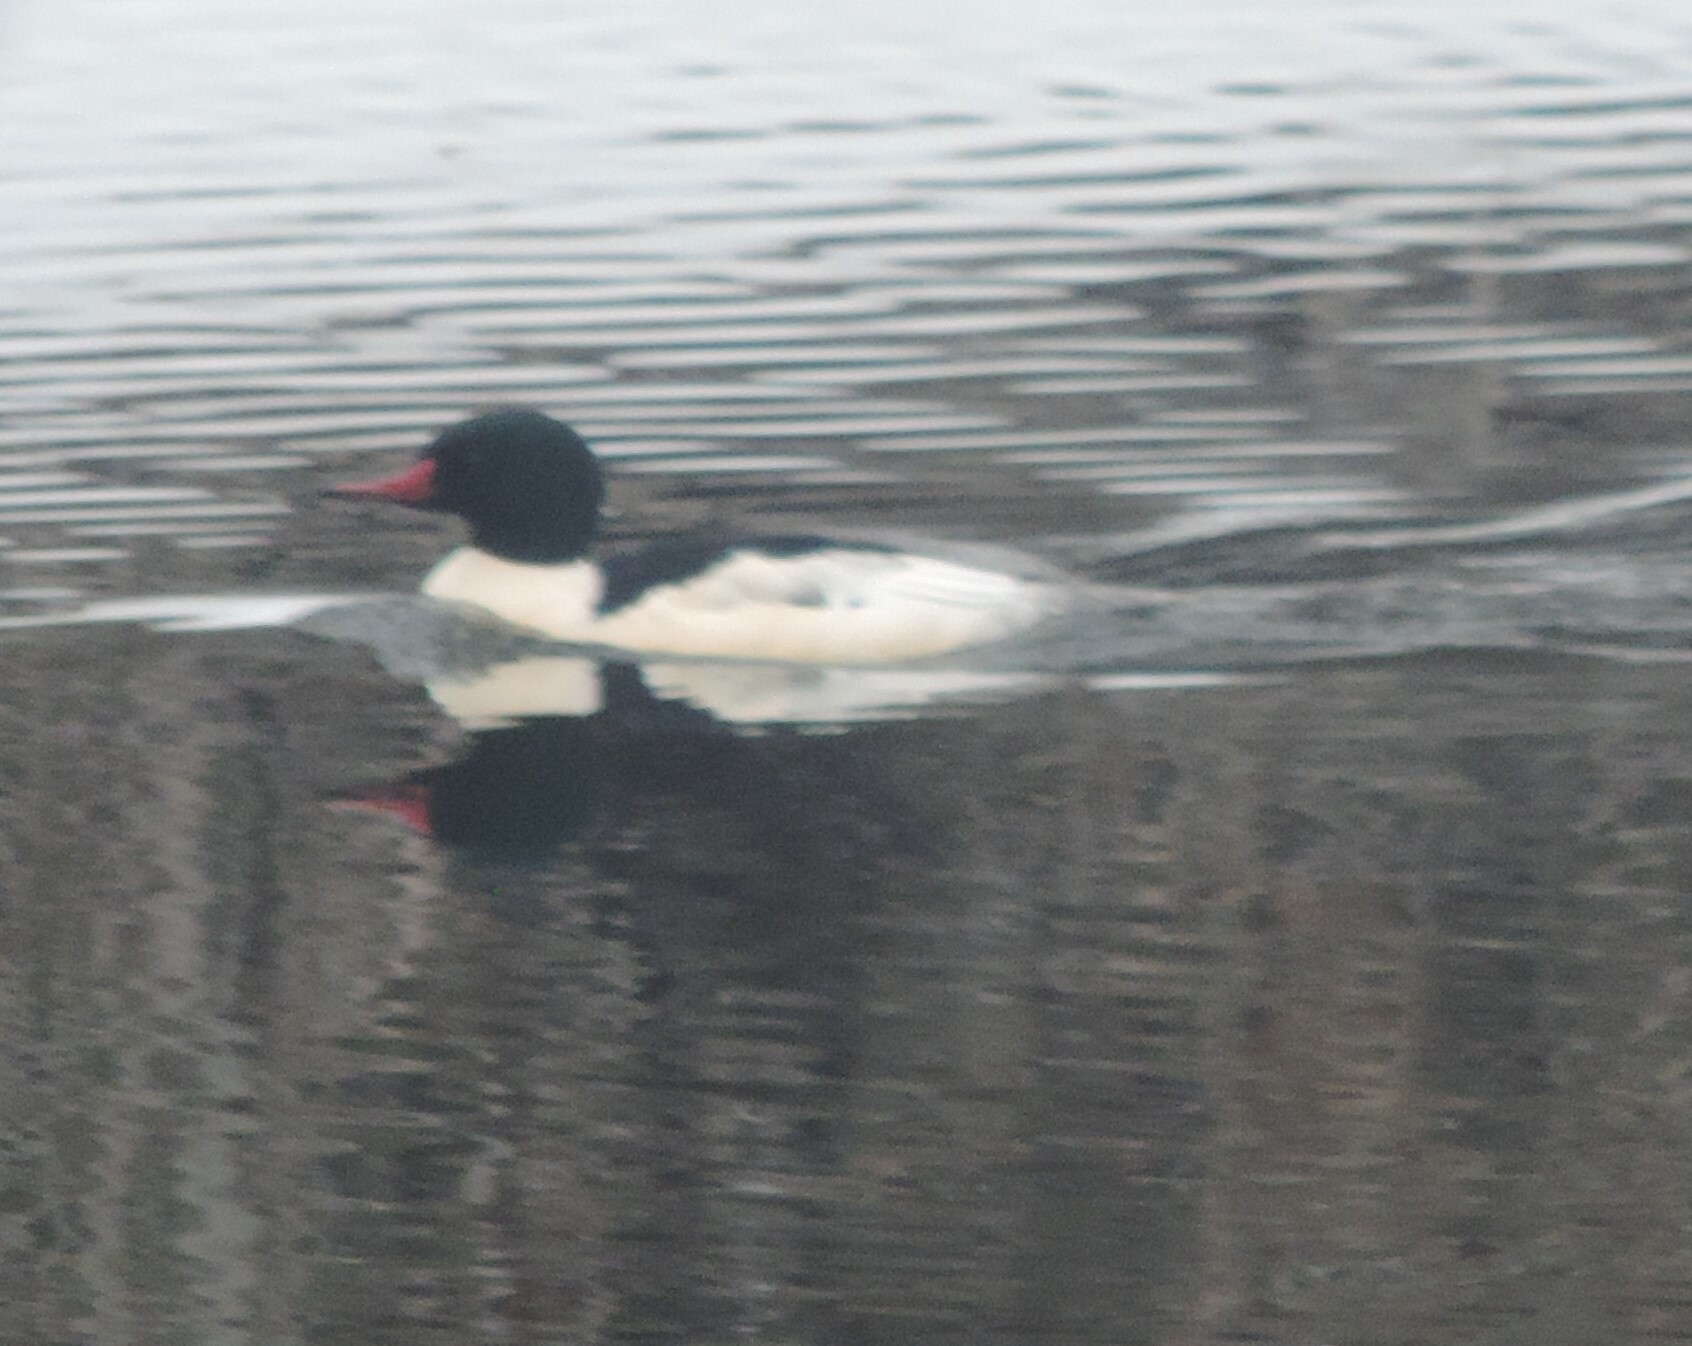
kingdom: Animalia
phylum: Chordata
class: Aves
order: Anseriformes
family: Anatidae
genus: Mergus
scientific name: Mergus merganser
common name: Common merganser
